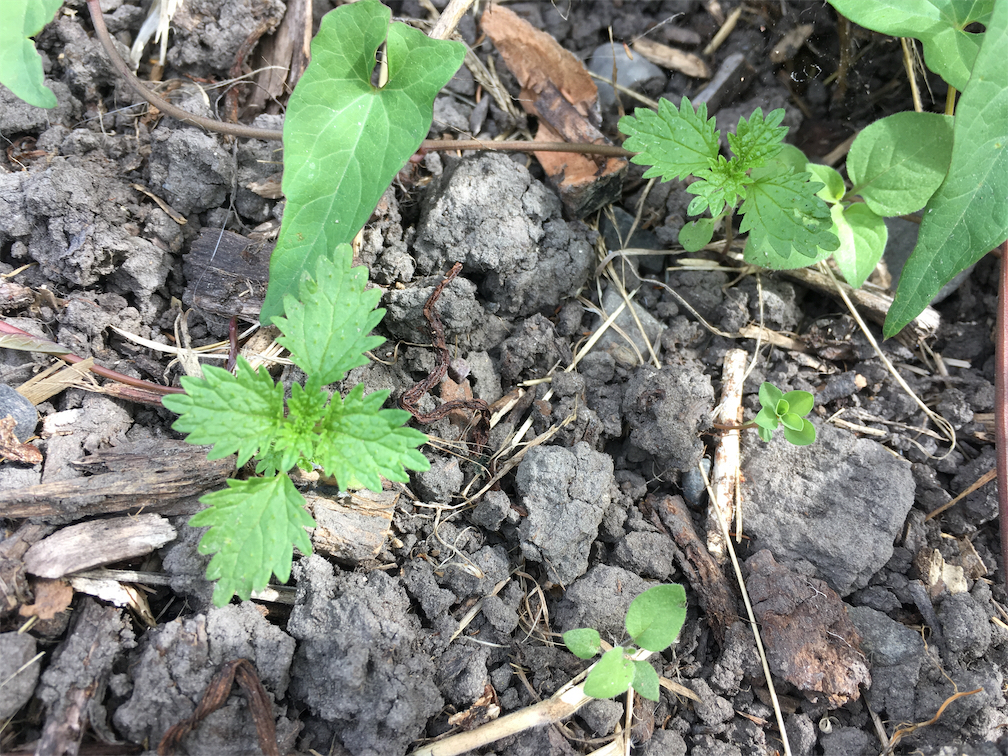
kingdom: Plantae
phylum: Tracheophyta
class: Magnoliopsida
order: Rosales
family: Urticaceae
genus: Urtica
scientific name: Urtica urens
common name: Dwarf nettle
